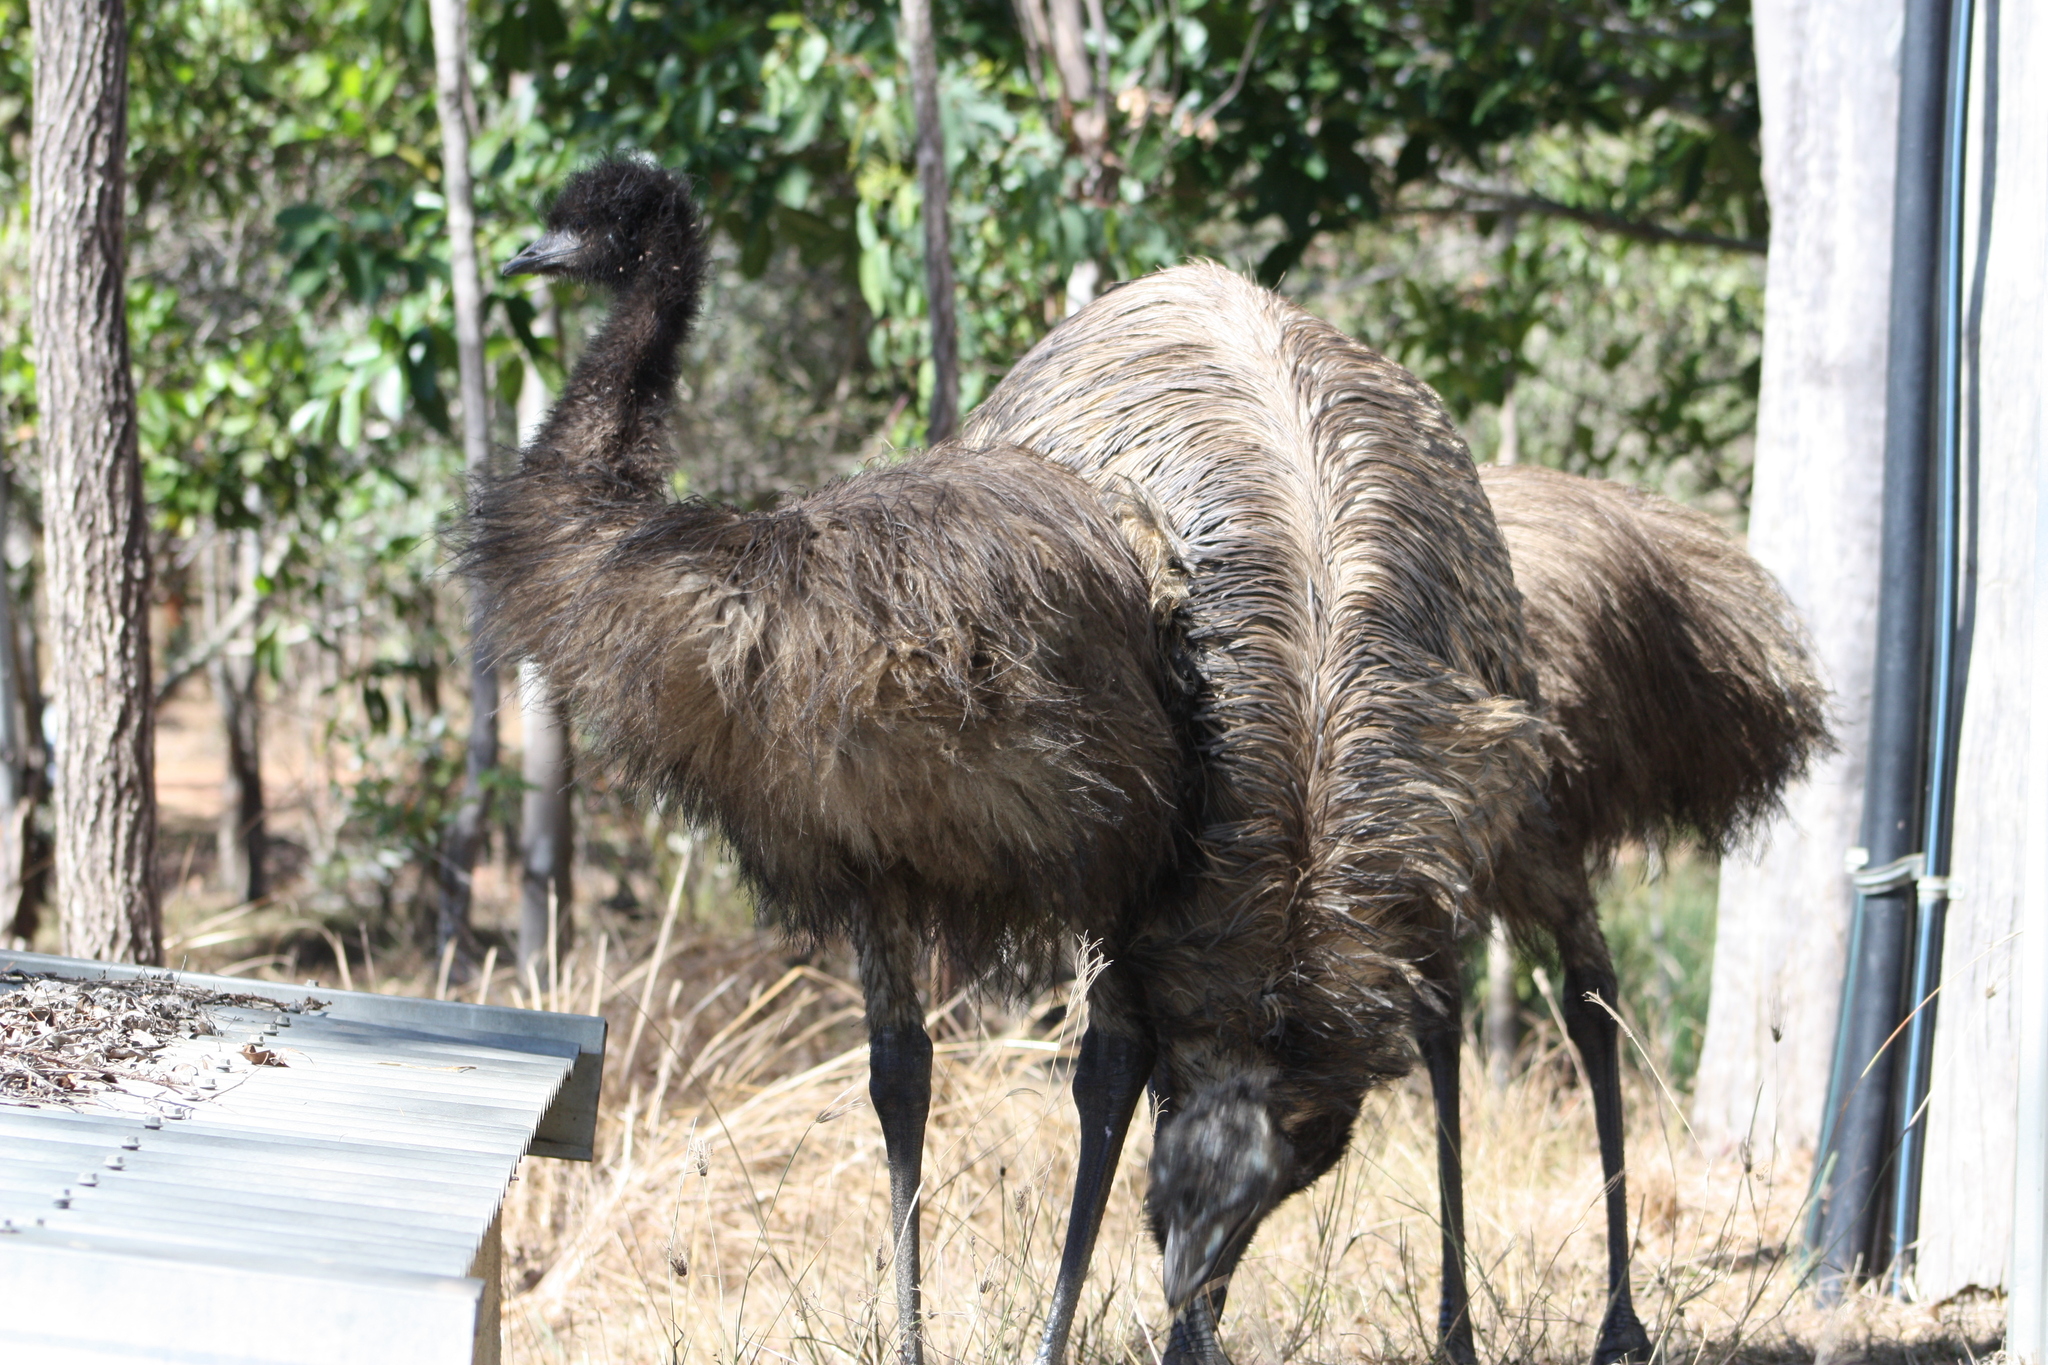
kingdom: Animalia
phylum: Chordata
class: Aves
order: Casuariiformes
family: Dromaiidae
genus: Dromaius
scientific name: Dromaius novaehollandiae
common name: Emu
